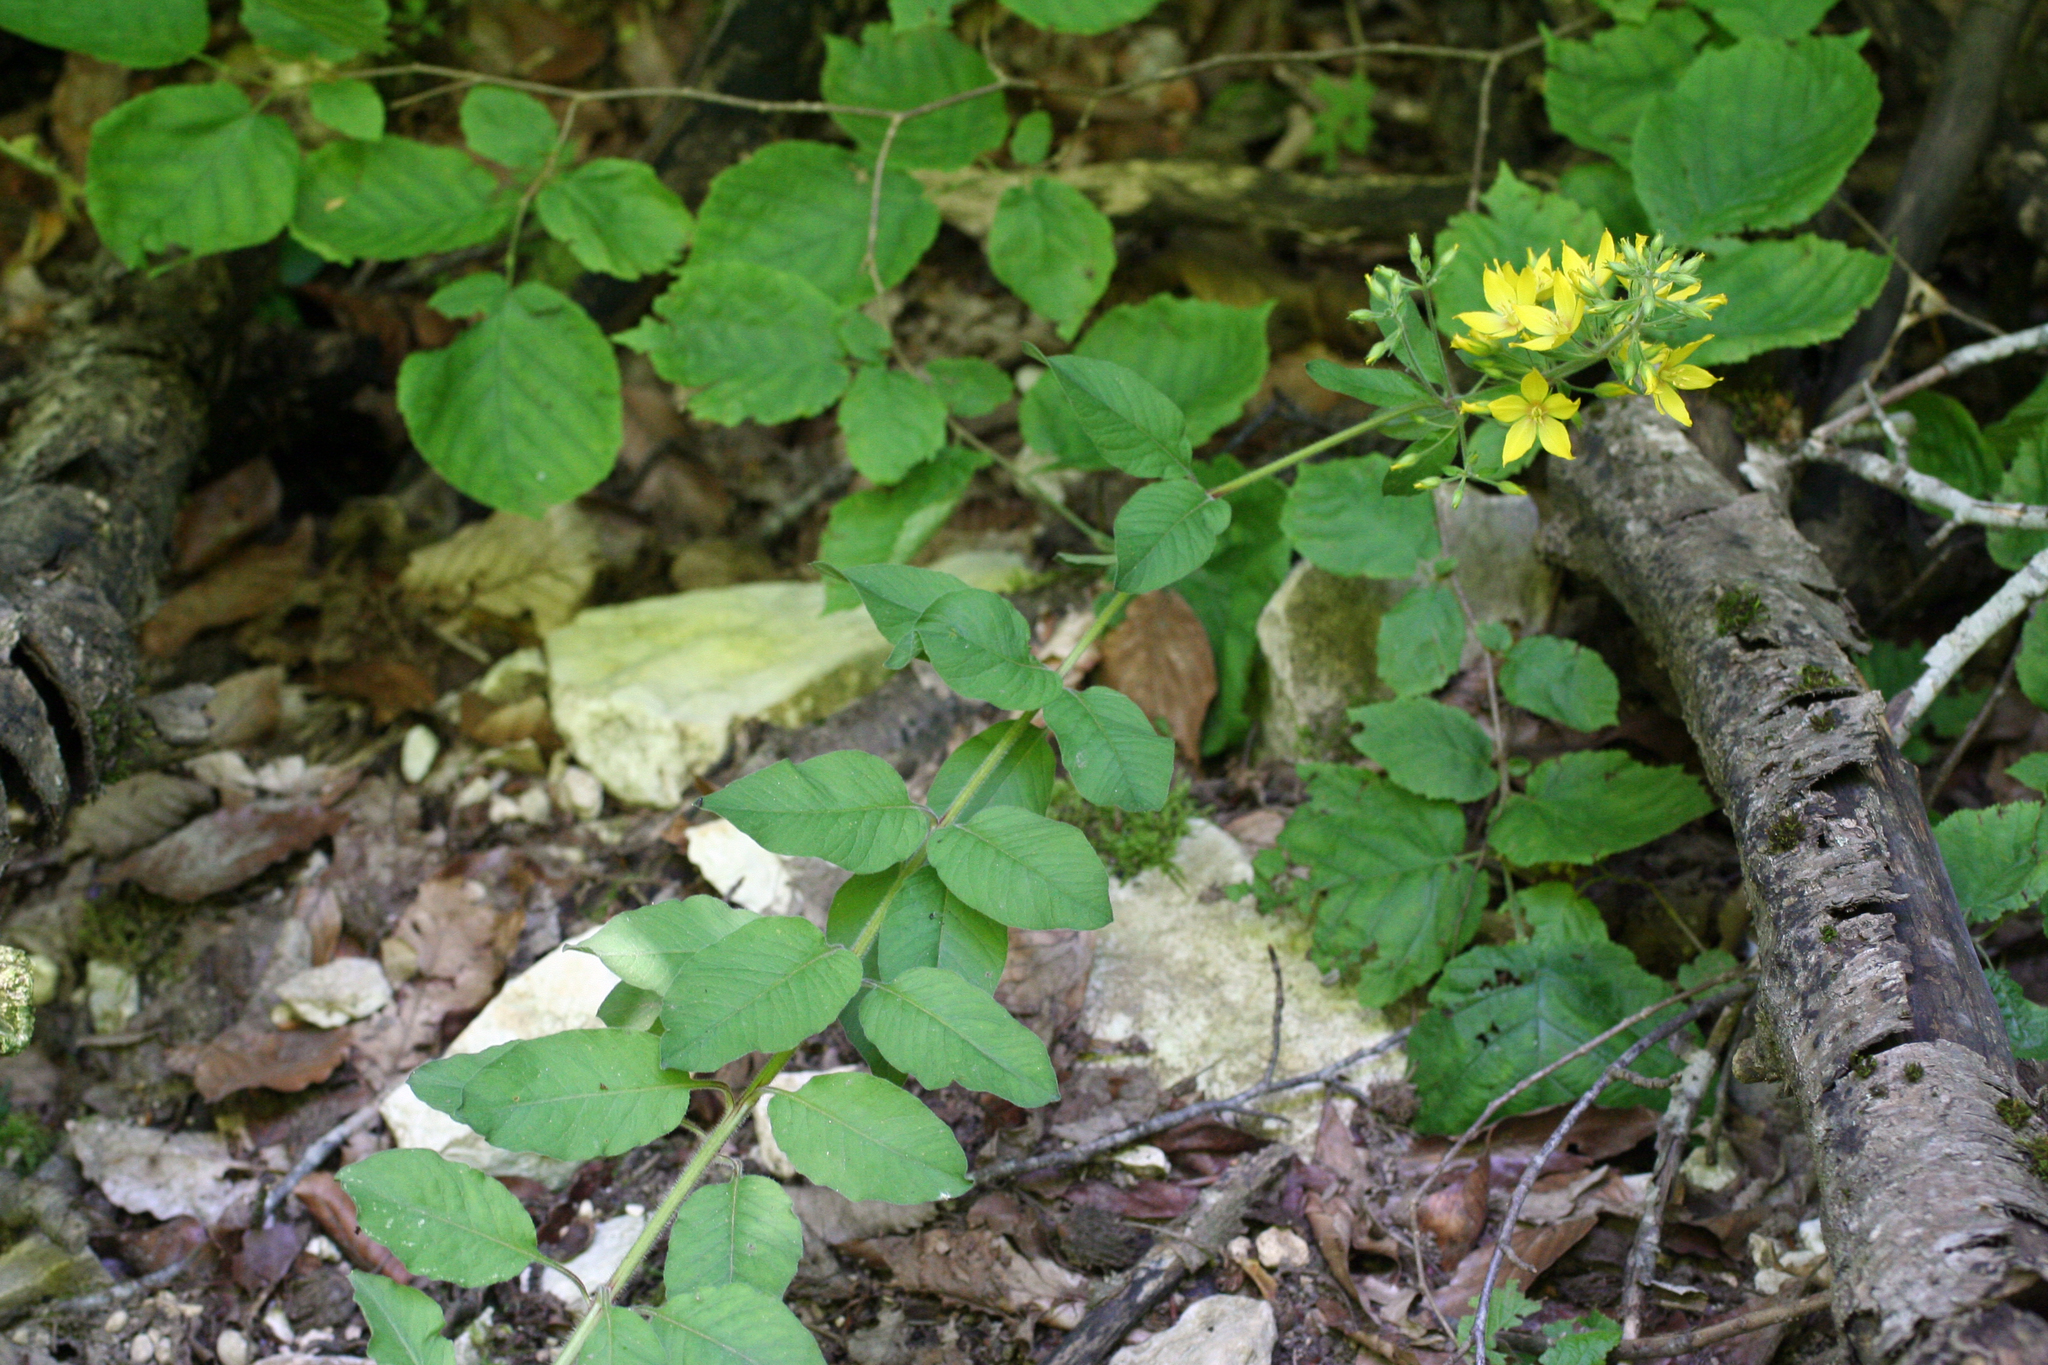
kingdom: Plantae
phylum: Tracheophyta
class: Magnoliopsida
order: Ericales
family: Primulaceae
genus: Lysimachia
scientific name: Lysimachia verticillaris
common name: Yellow loosestrife
